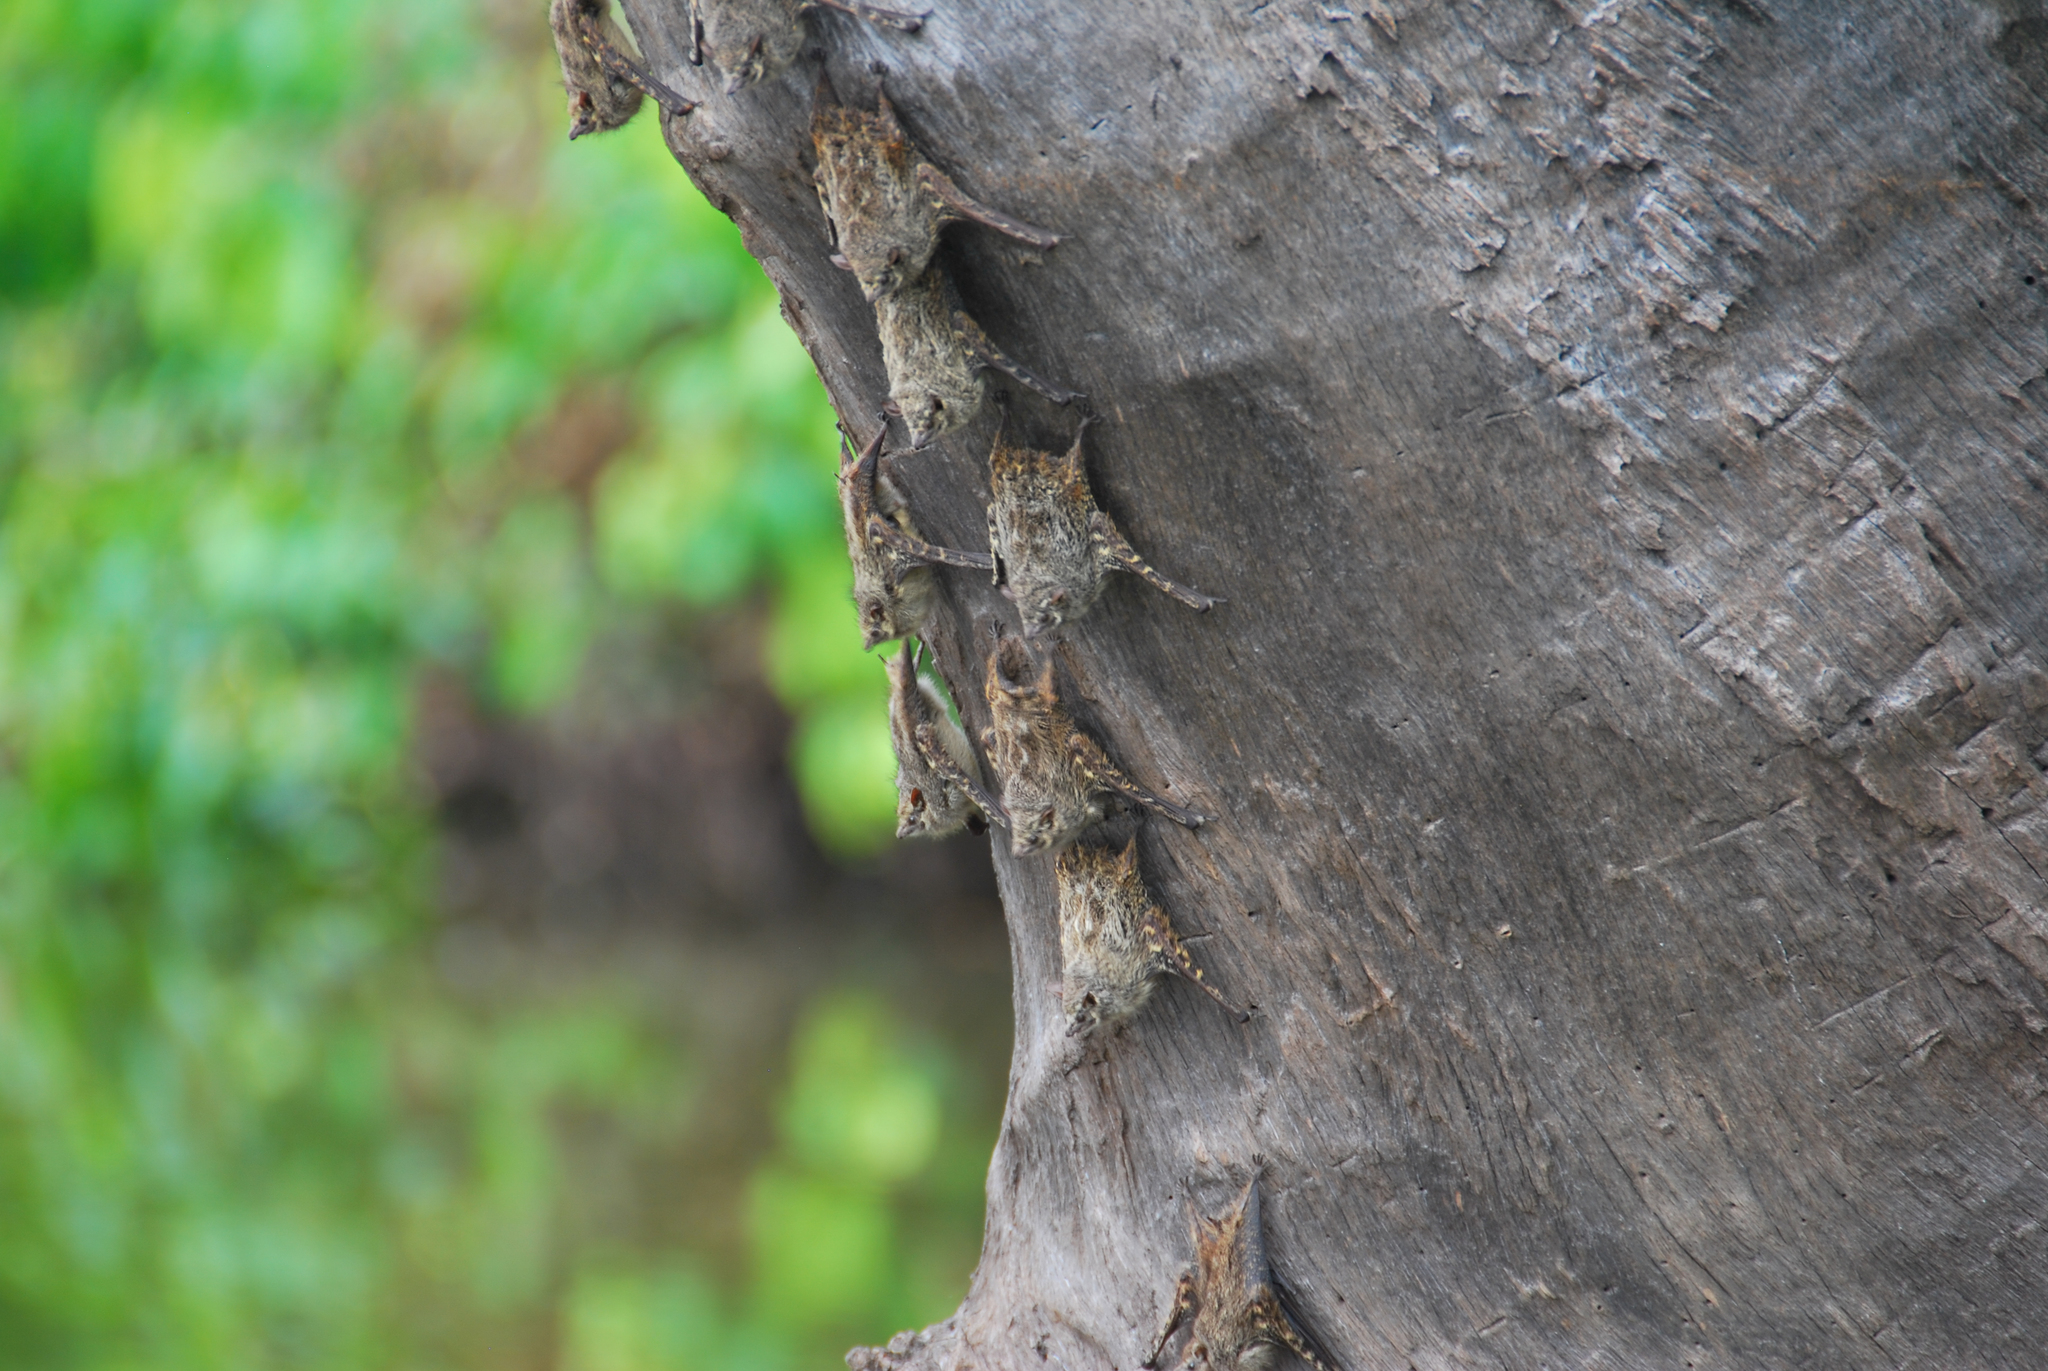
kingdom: Animalia
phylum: Chordata
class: Mammalia
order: Chiroptera
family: Emballonuridae
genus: Rhynchonycteris
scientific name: Rhynchonycteris naso
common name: Proboscis bat
